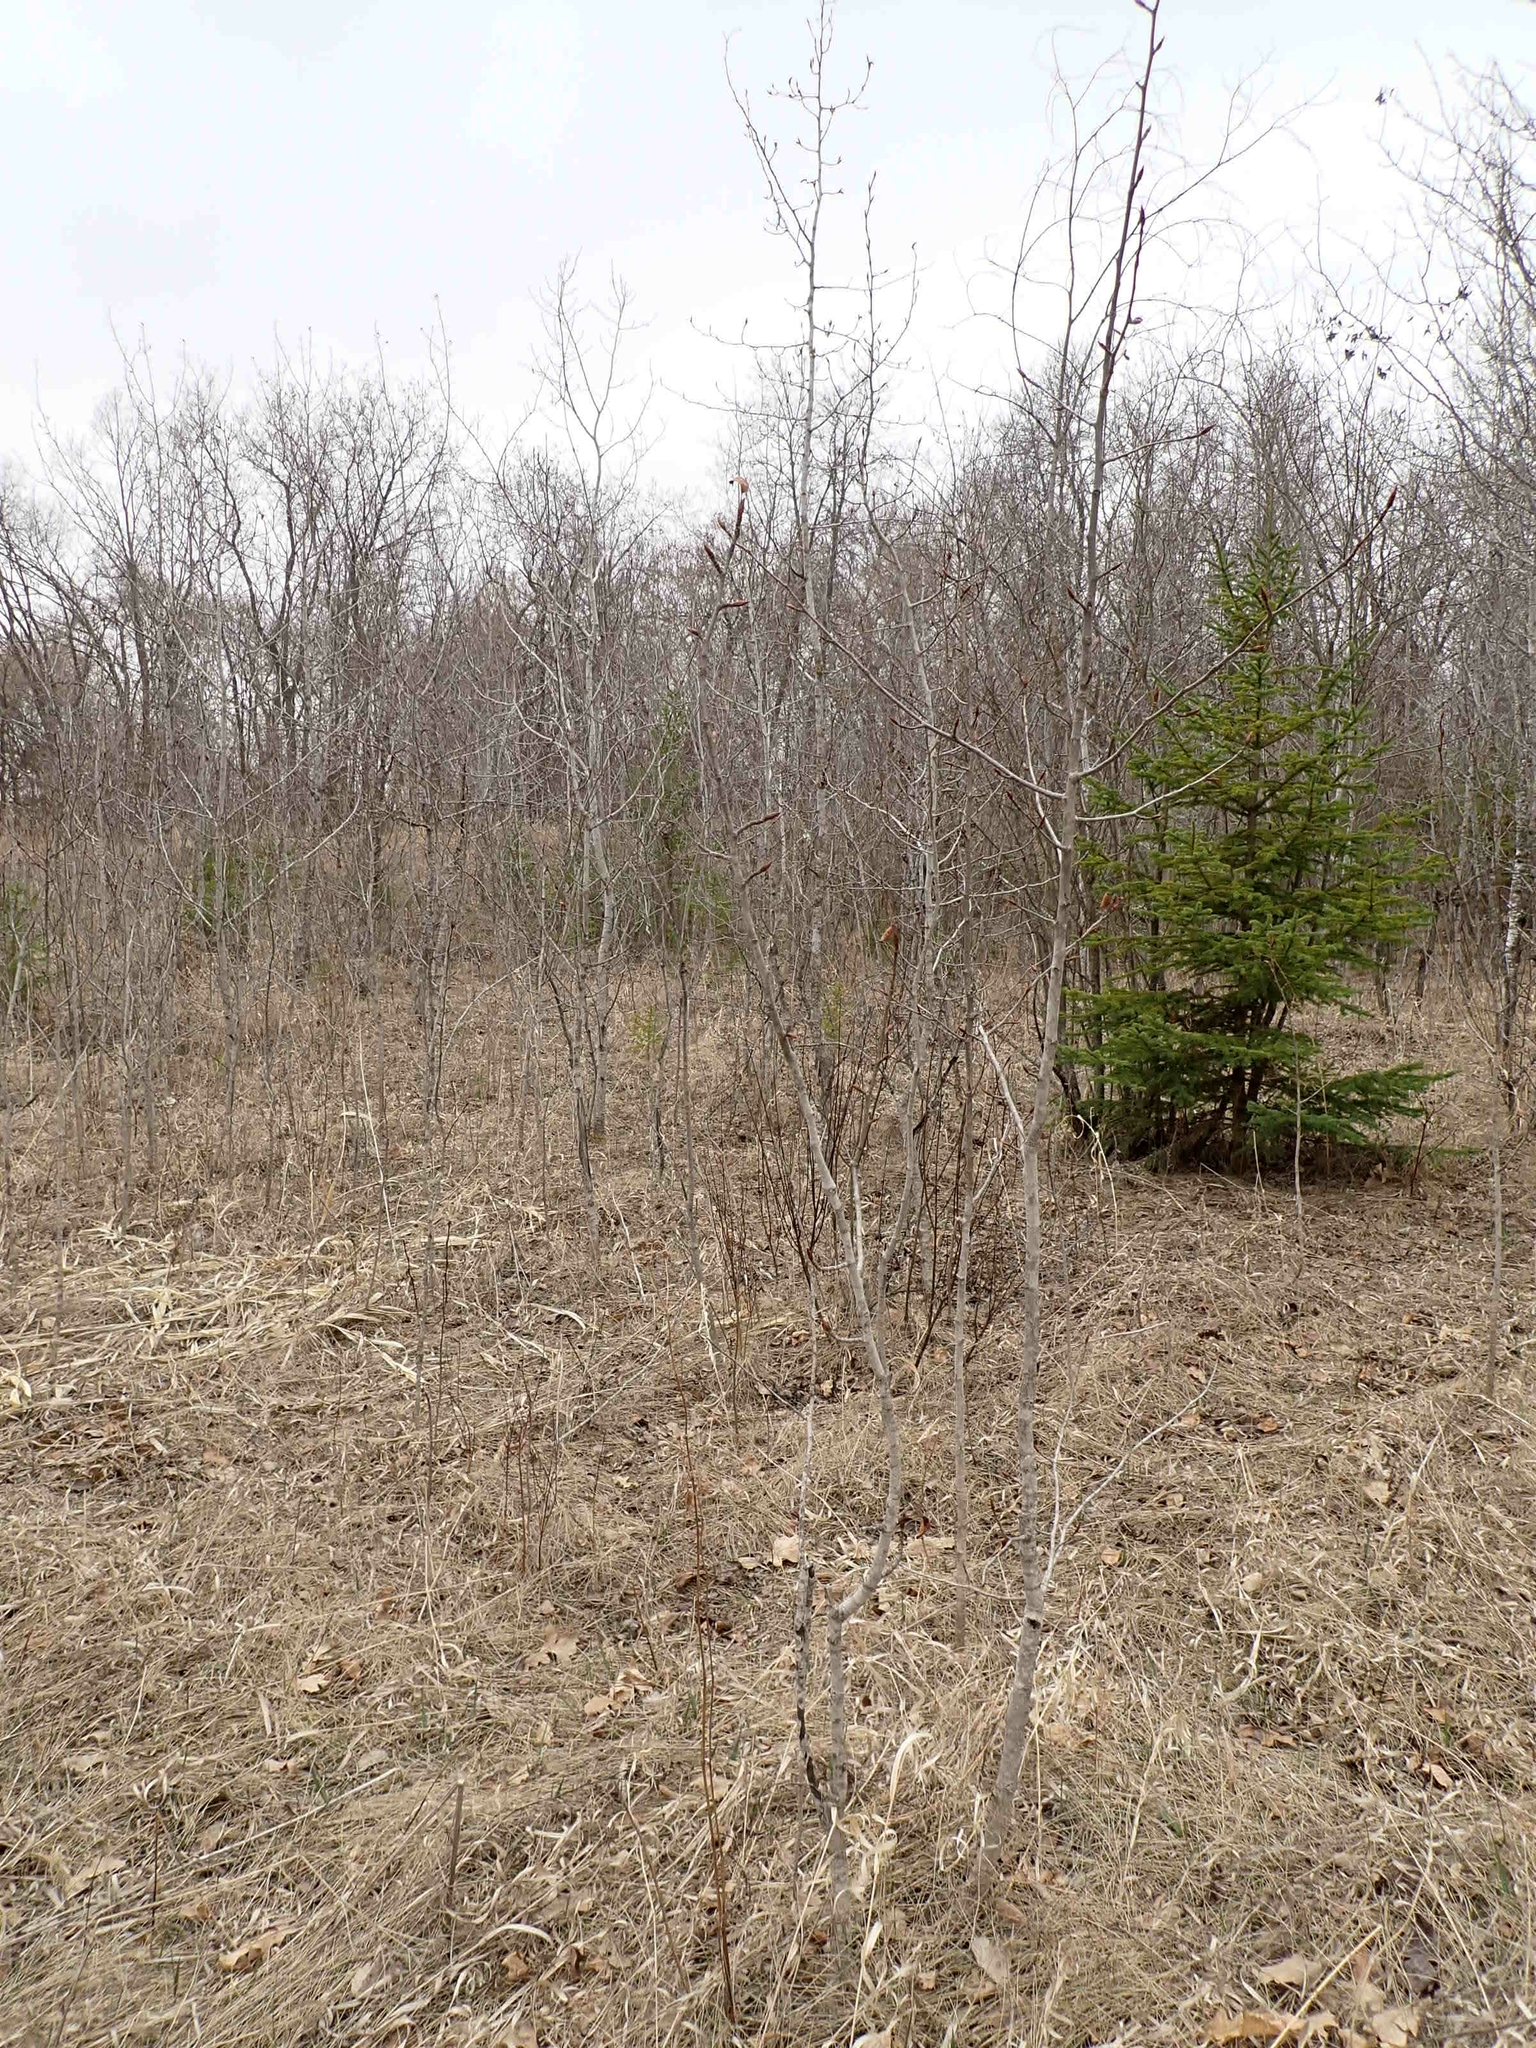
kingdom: Plantae
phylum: Tracheophyta
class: Magnoliopsida
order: Malpighiales
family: Salicaceae
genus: Populus
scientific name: Populus balsamifera
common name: Balsam poplar
